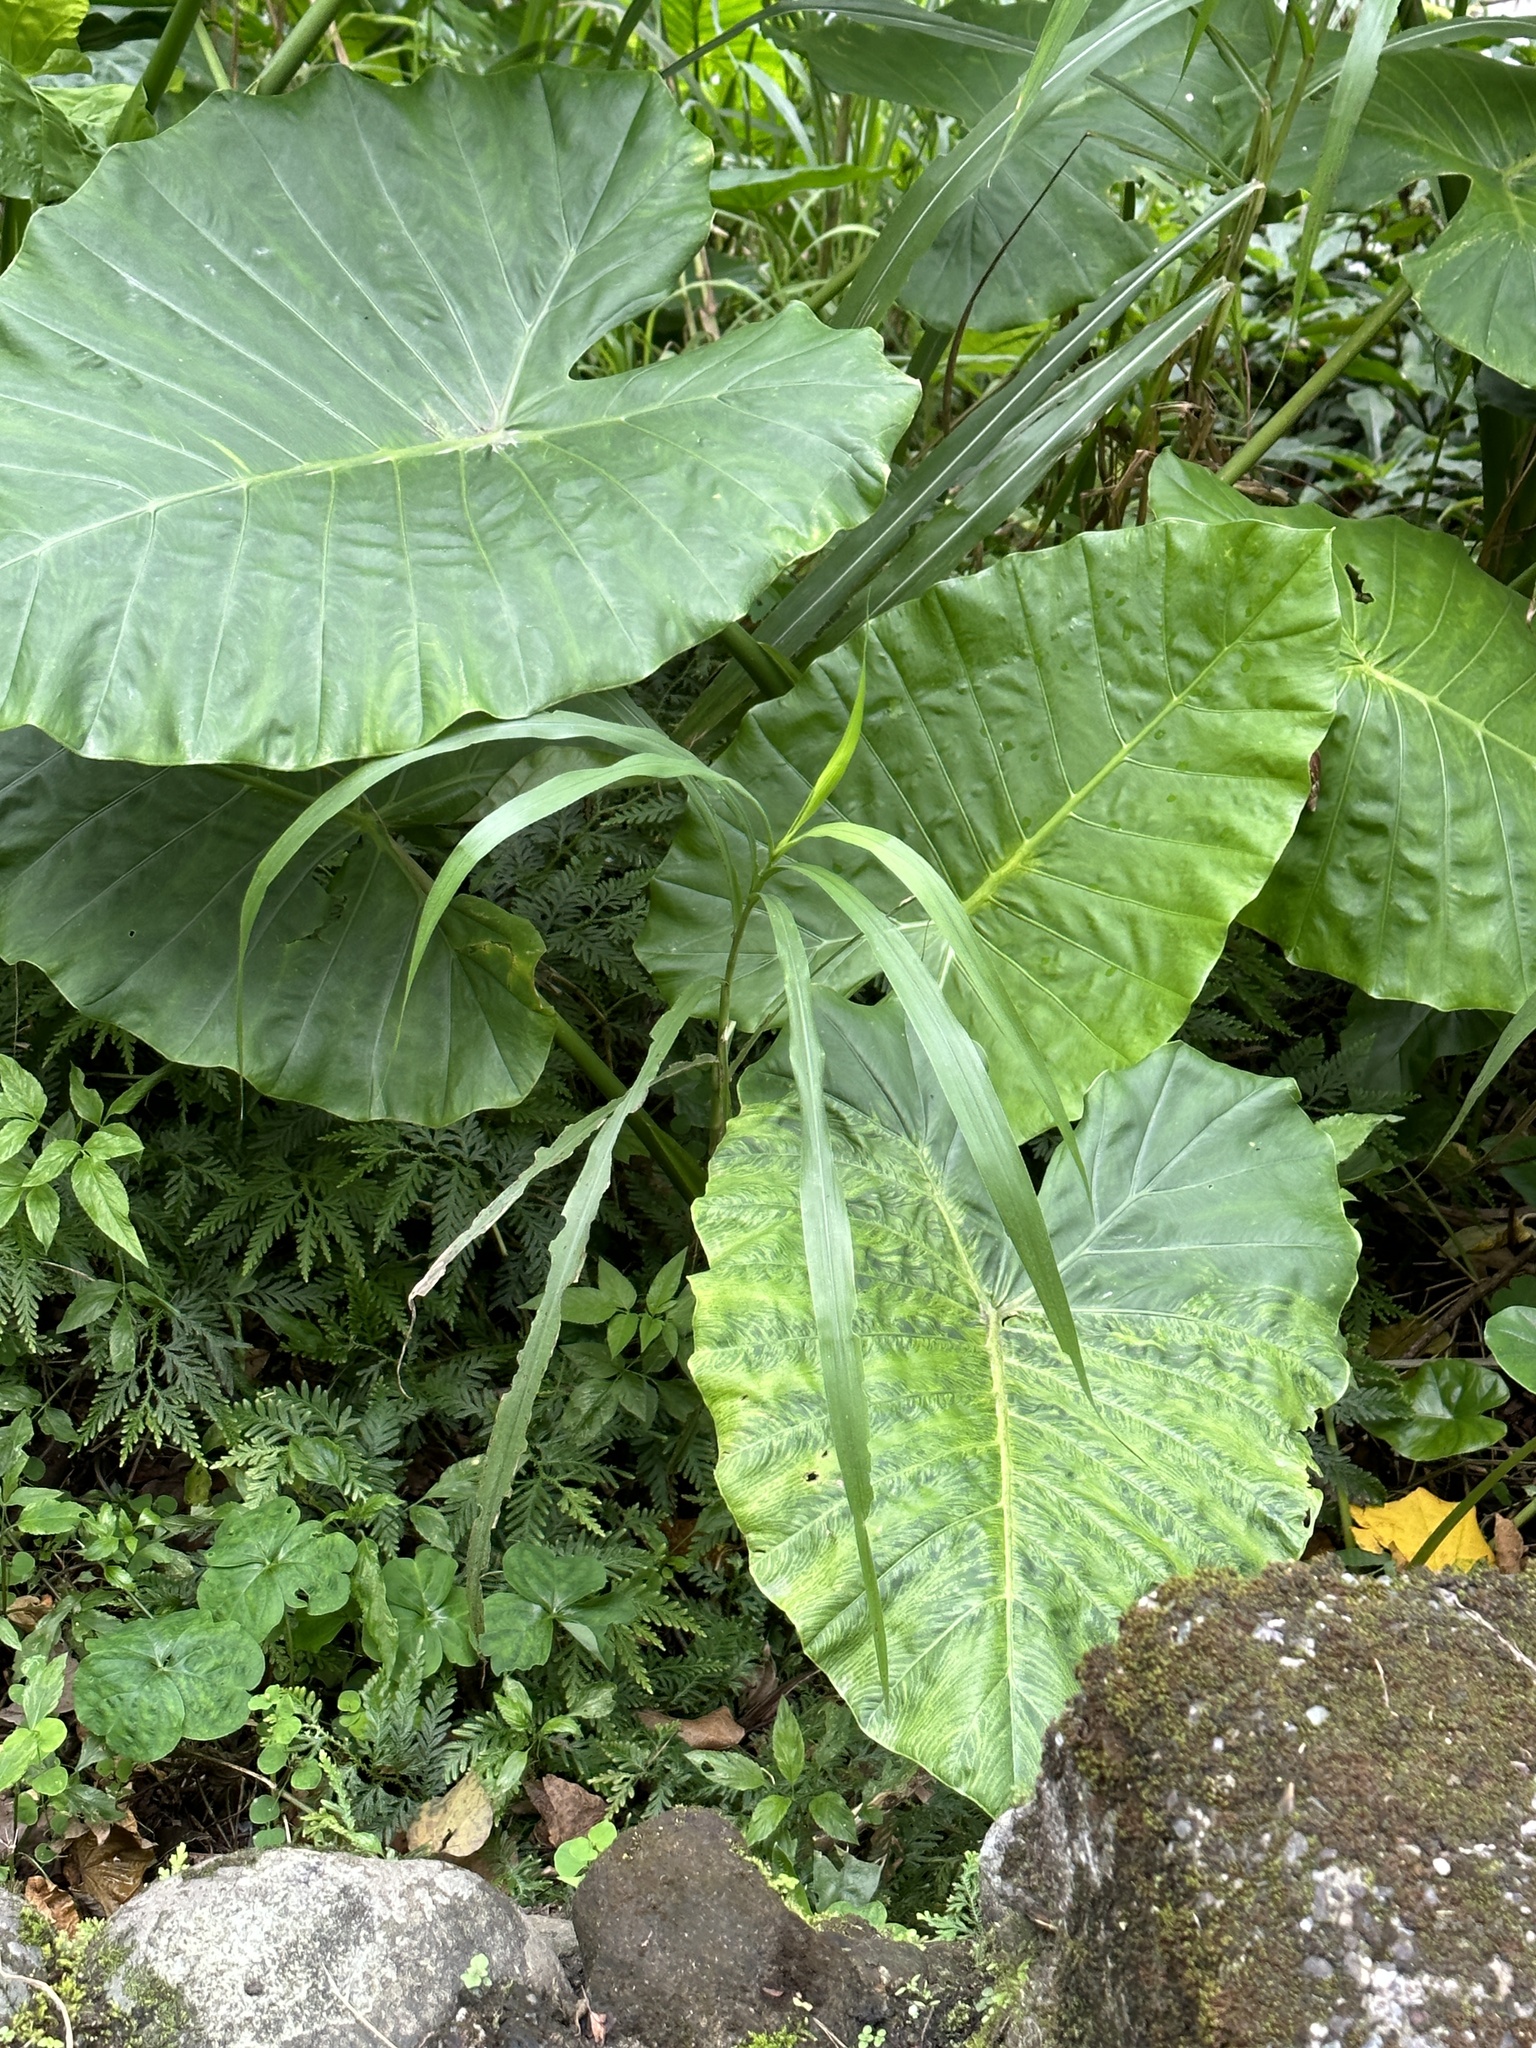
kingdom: Plantae
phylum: Tracheophyta
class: Liliopsida
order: Alismatales
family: Araceae
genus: Alocasia
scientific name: Alocasia odora
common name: Asian taro
